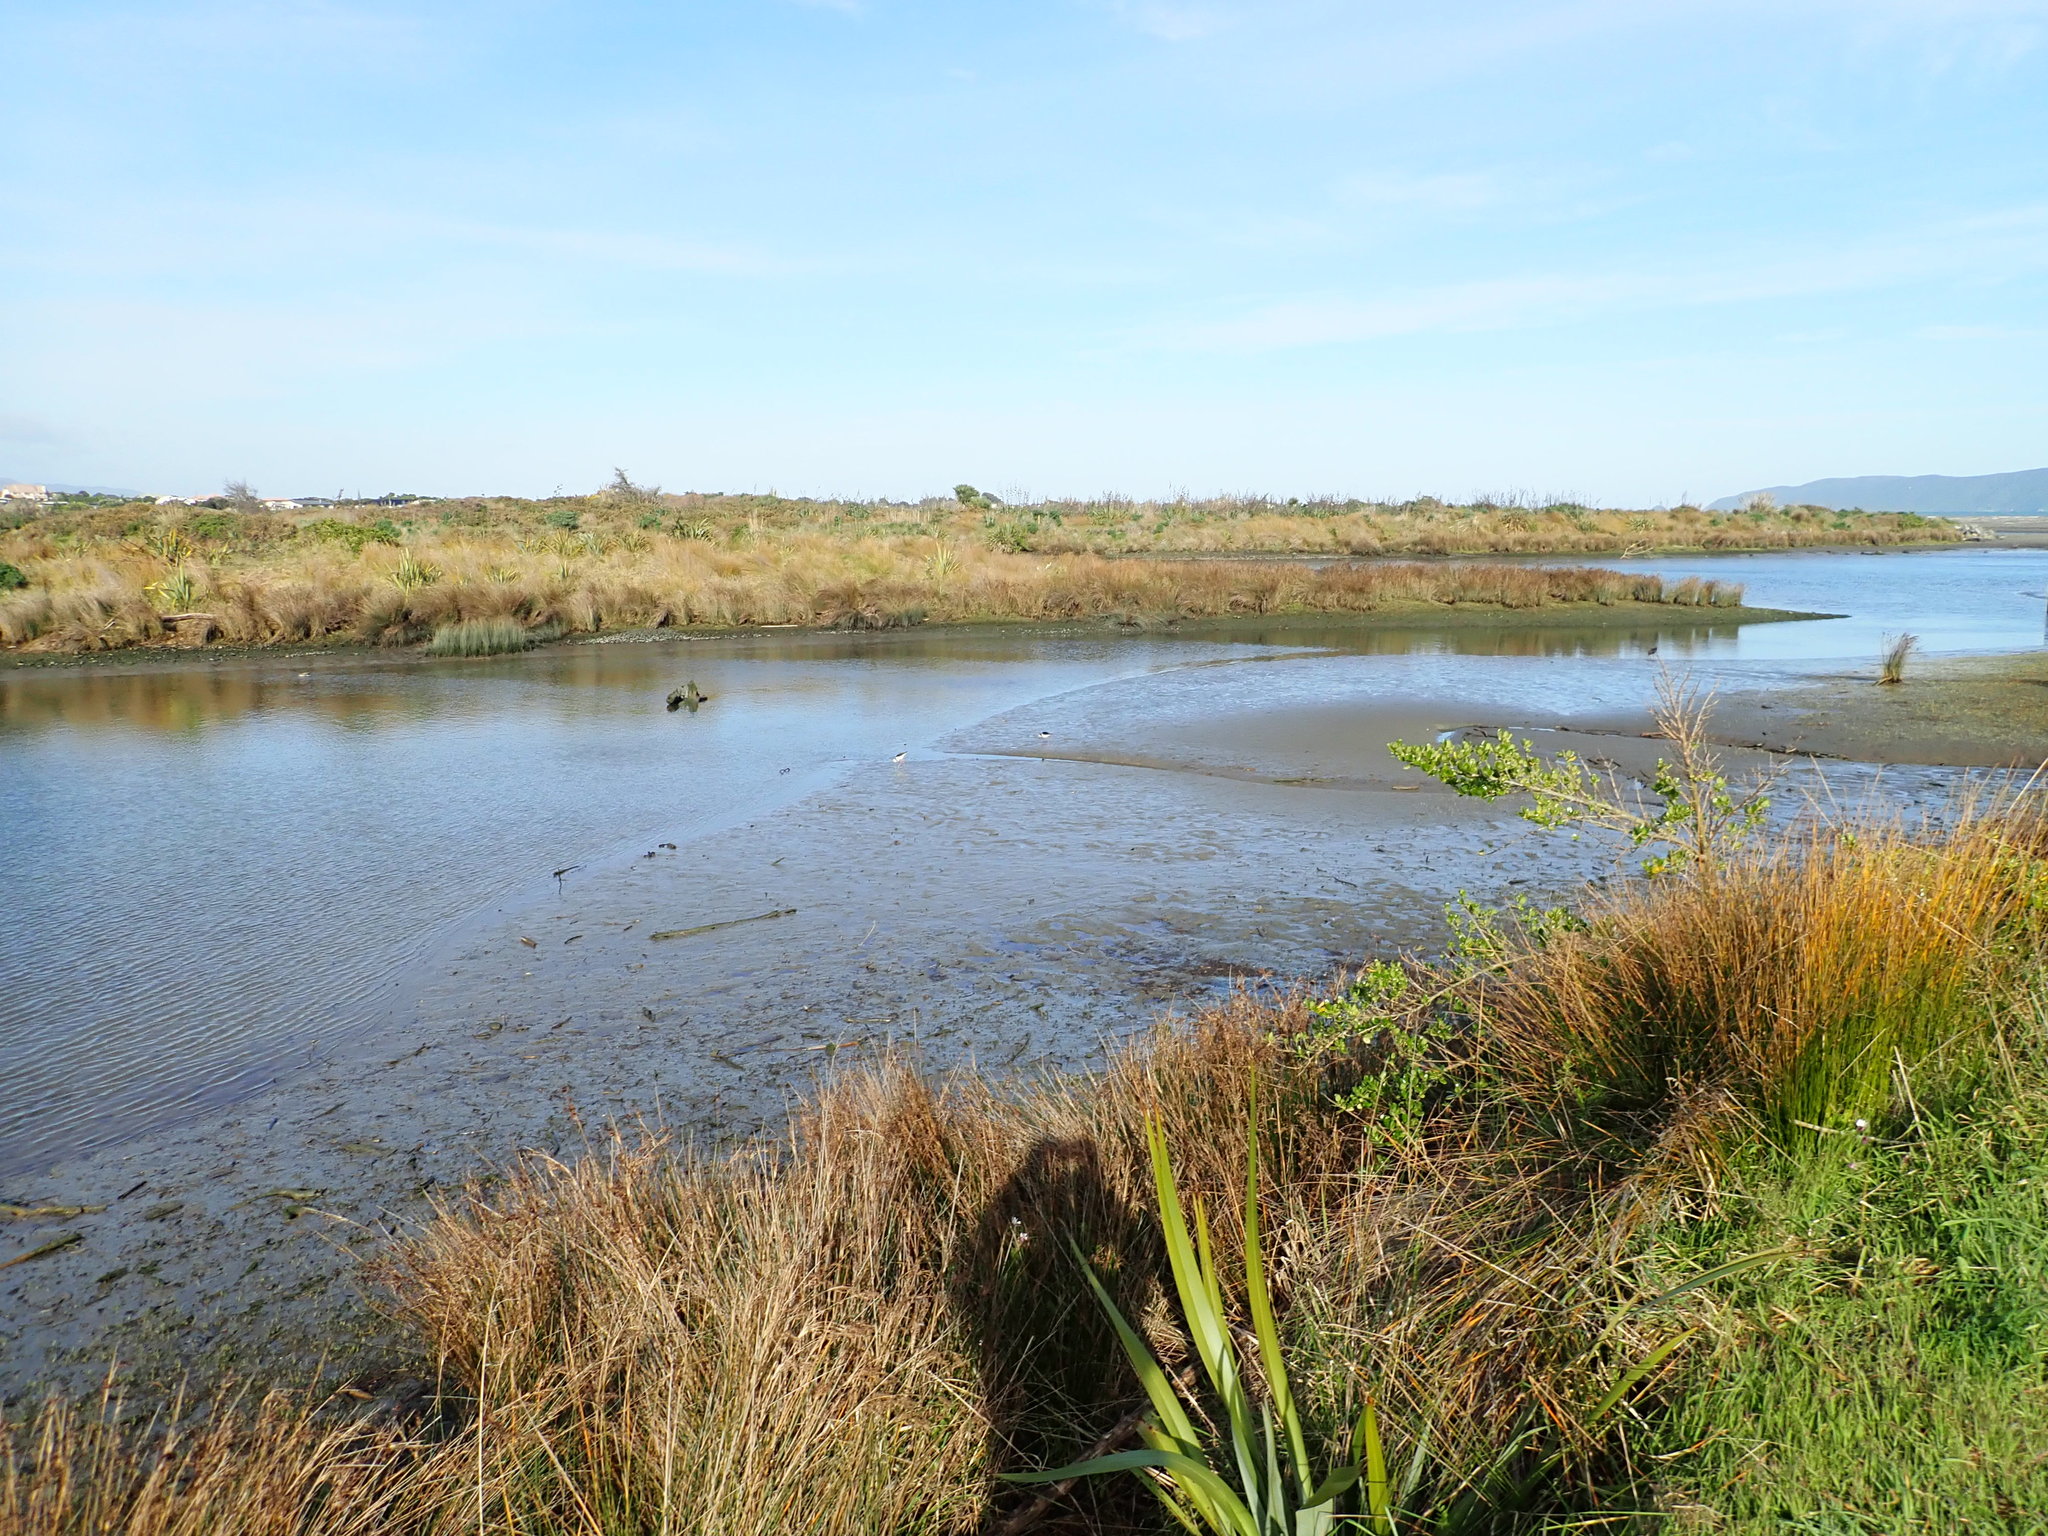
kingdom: Animalia
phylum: Chordata
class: Aves
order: Charadriiformes
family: Recurvirostridae
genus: Himantopus
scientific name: Himantopus leucocephalus
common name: White-headed stilt
